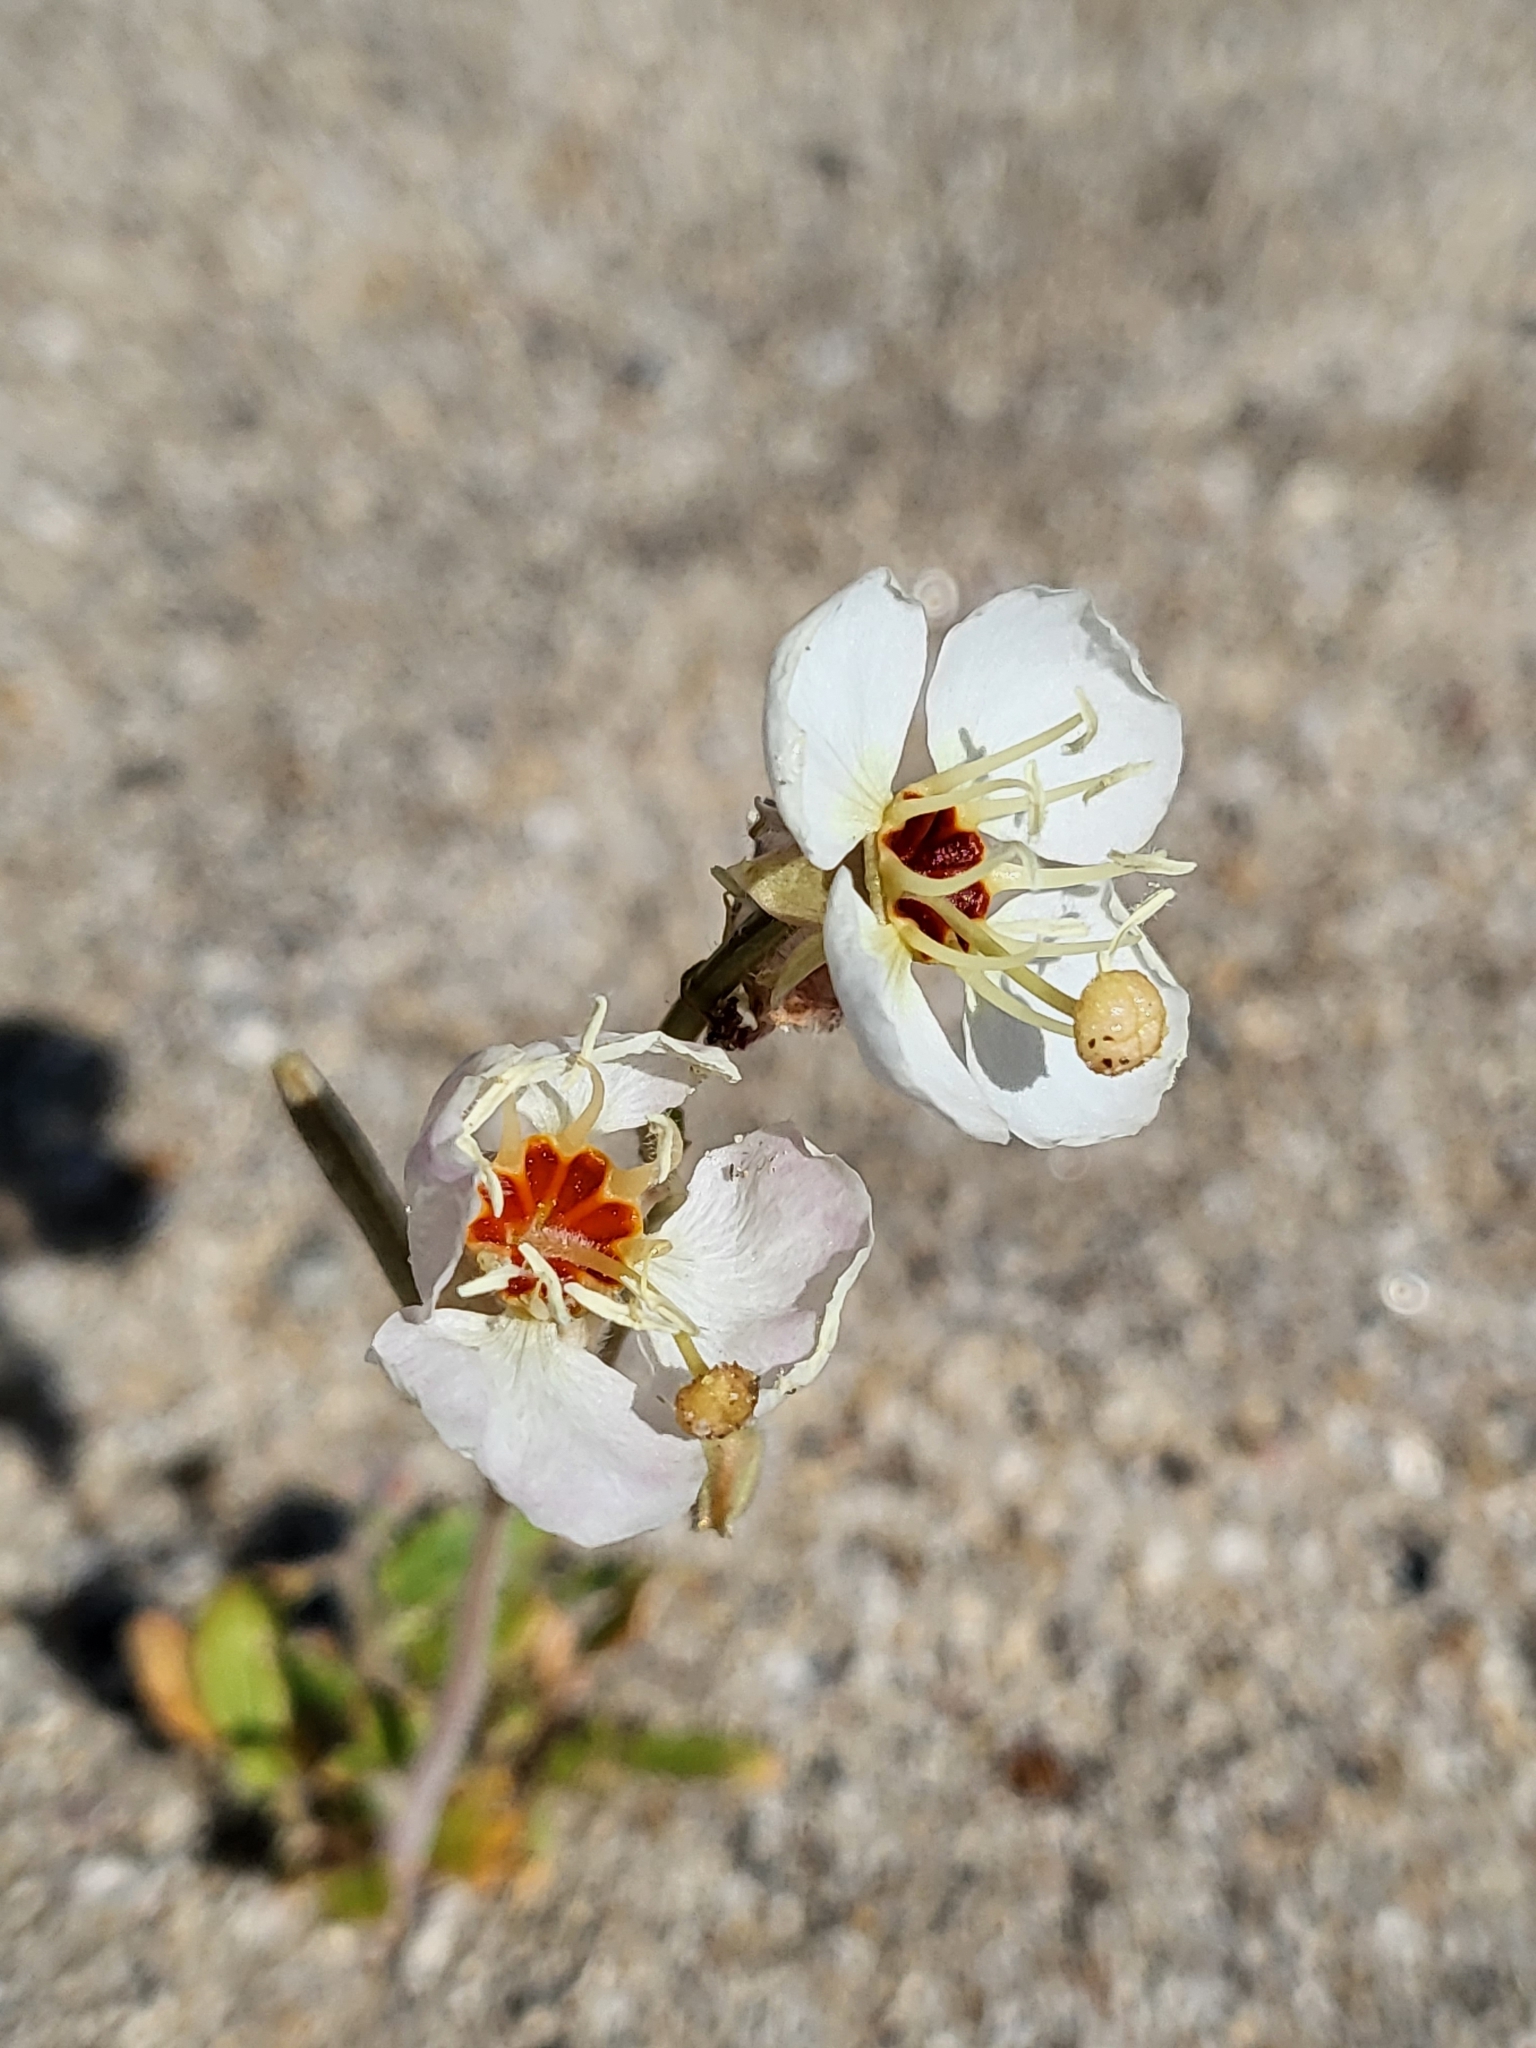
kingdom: Plantae
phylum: Tracheophyta
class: Magnoliopsida
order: Myrtales
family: Onagraceae
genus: Chylismia
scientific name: Chylismia claviformis
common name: Browneyes
